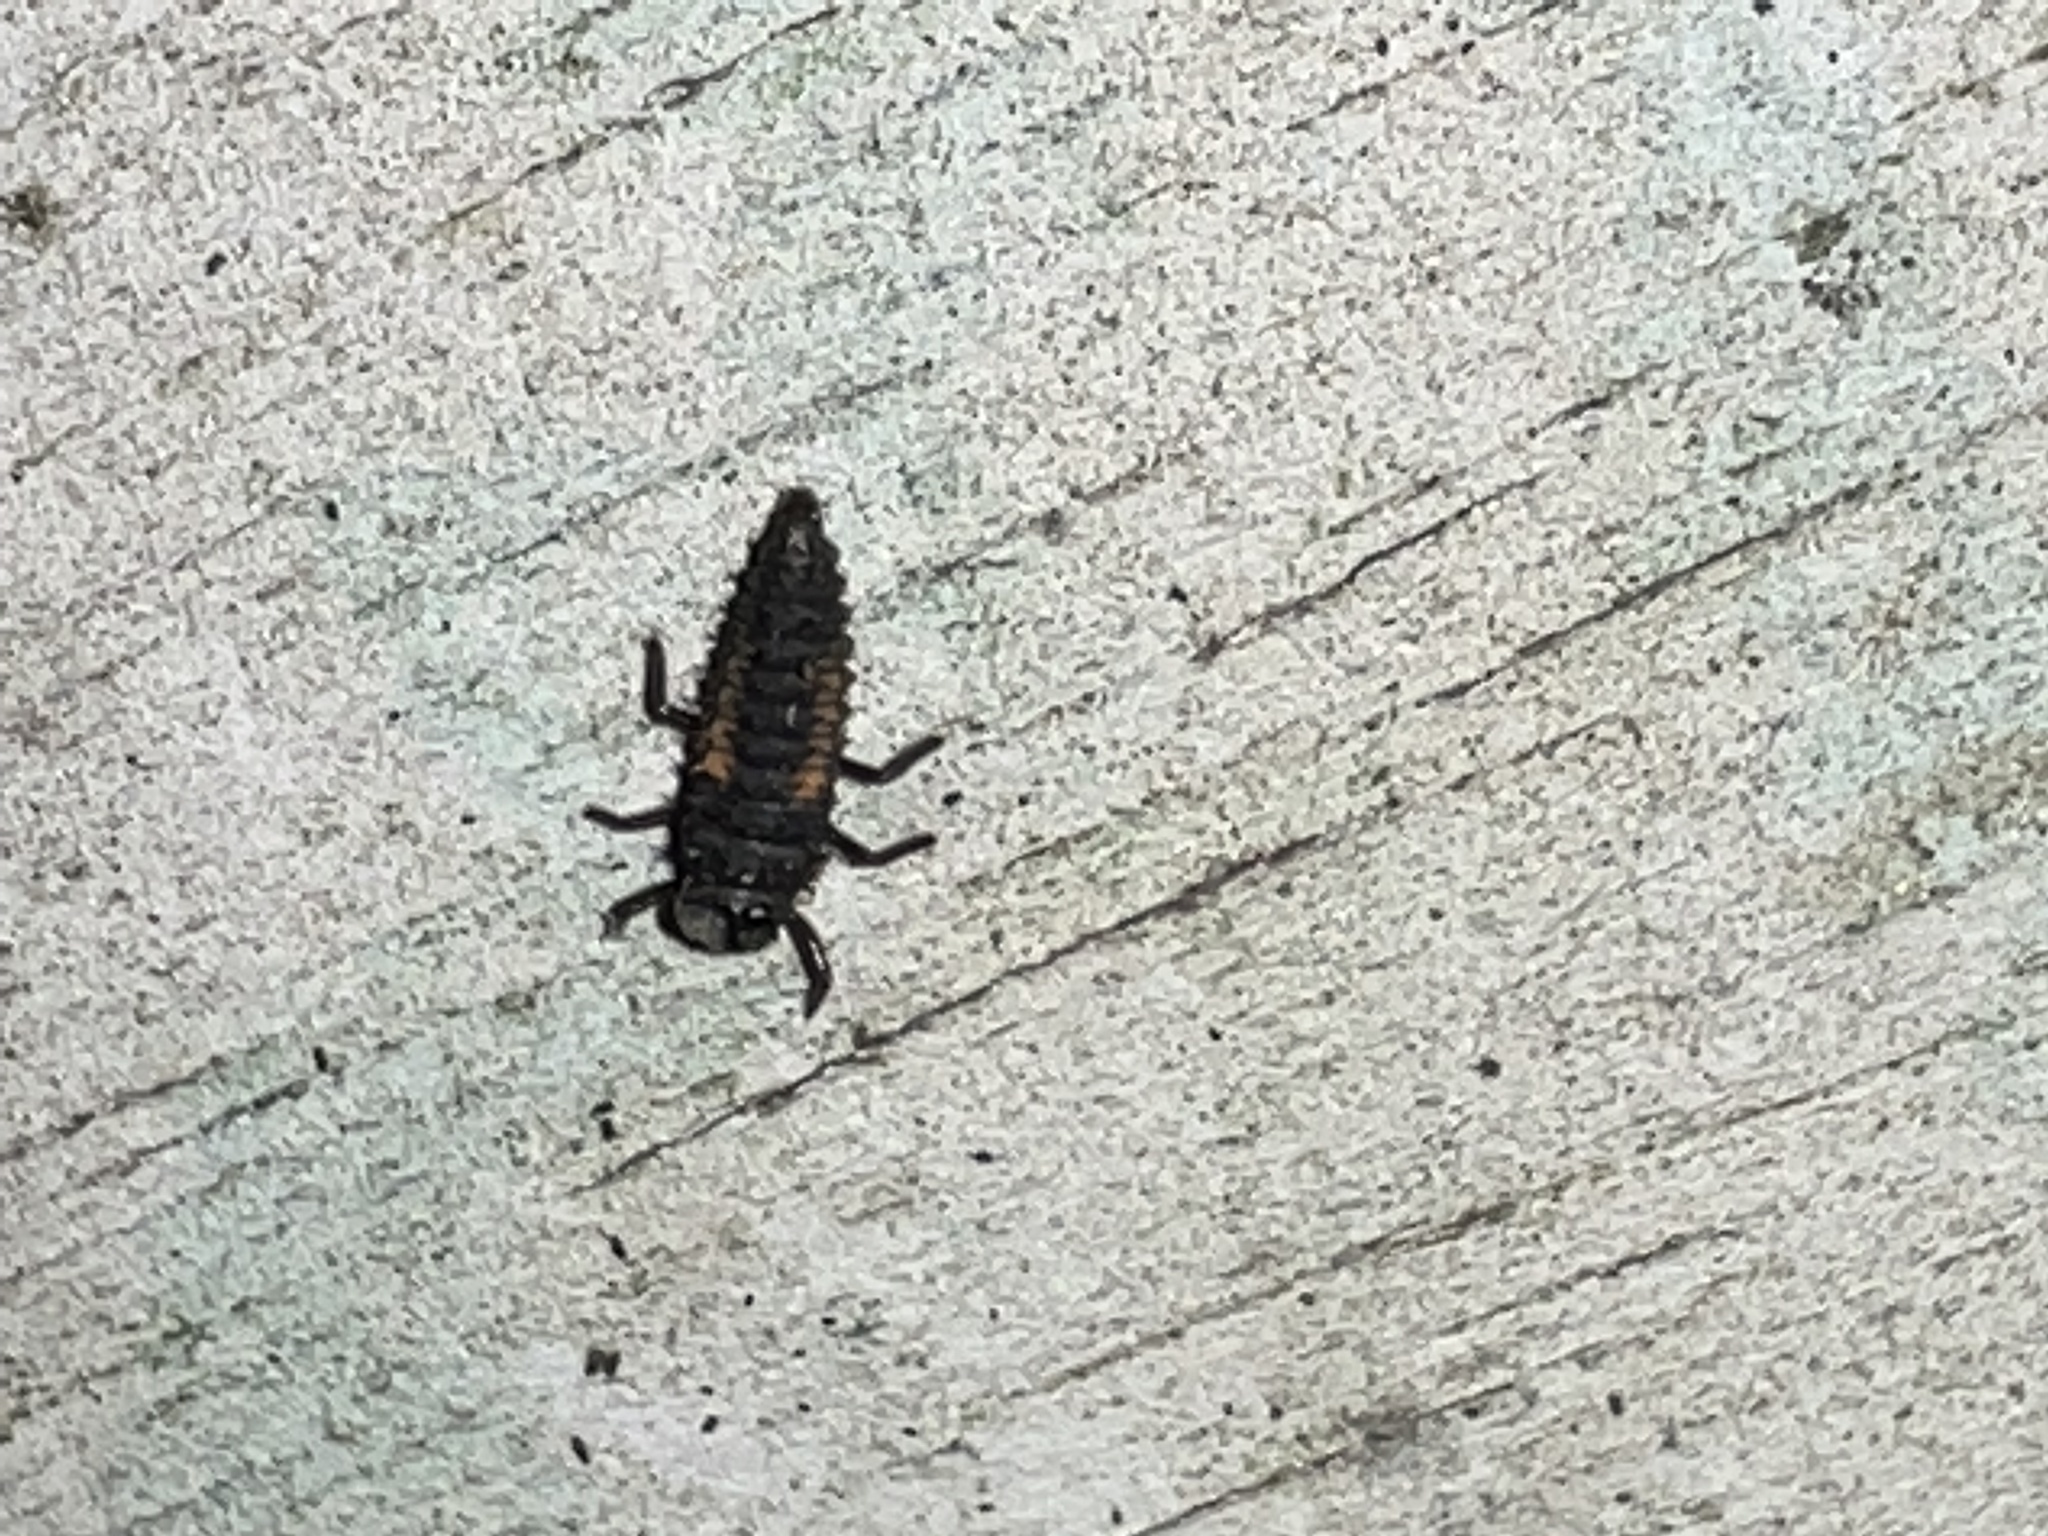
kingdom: Animalia
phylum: Arthropoda
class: Insecta
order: Coleoptera
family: Coccinellidae
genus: Harmonia
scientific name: Harmonia axyridis
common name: Harlequin ladybird
